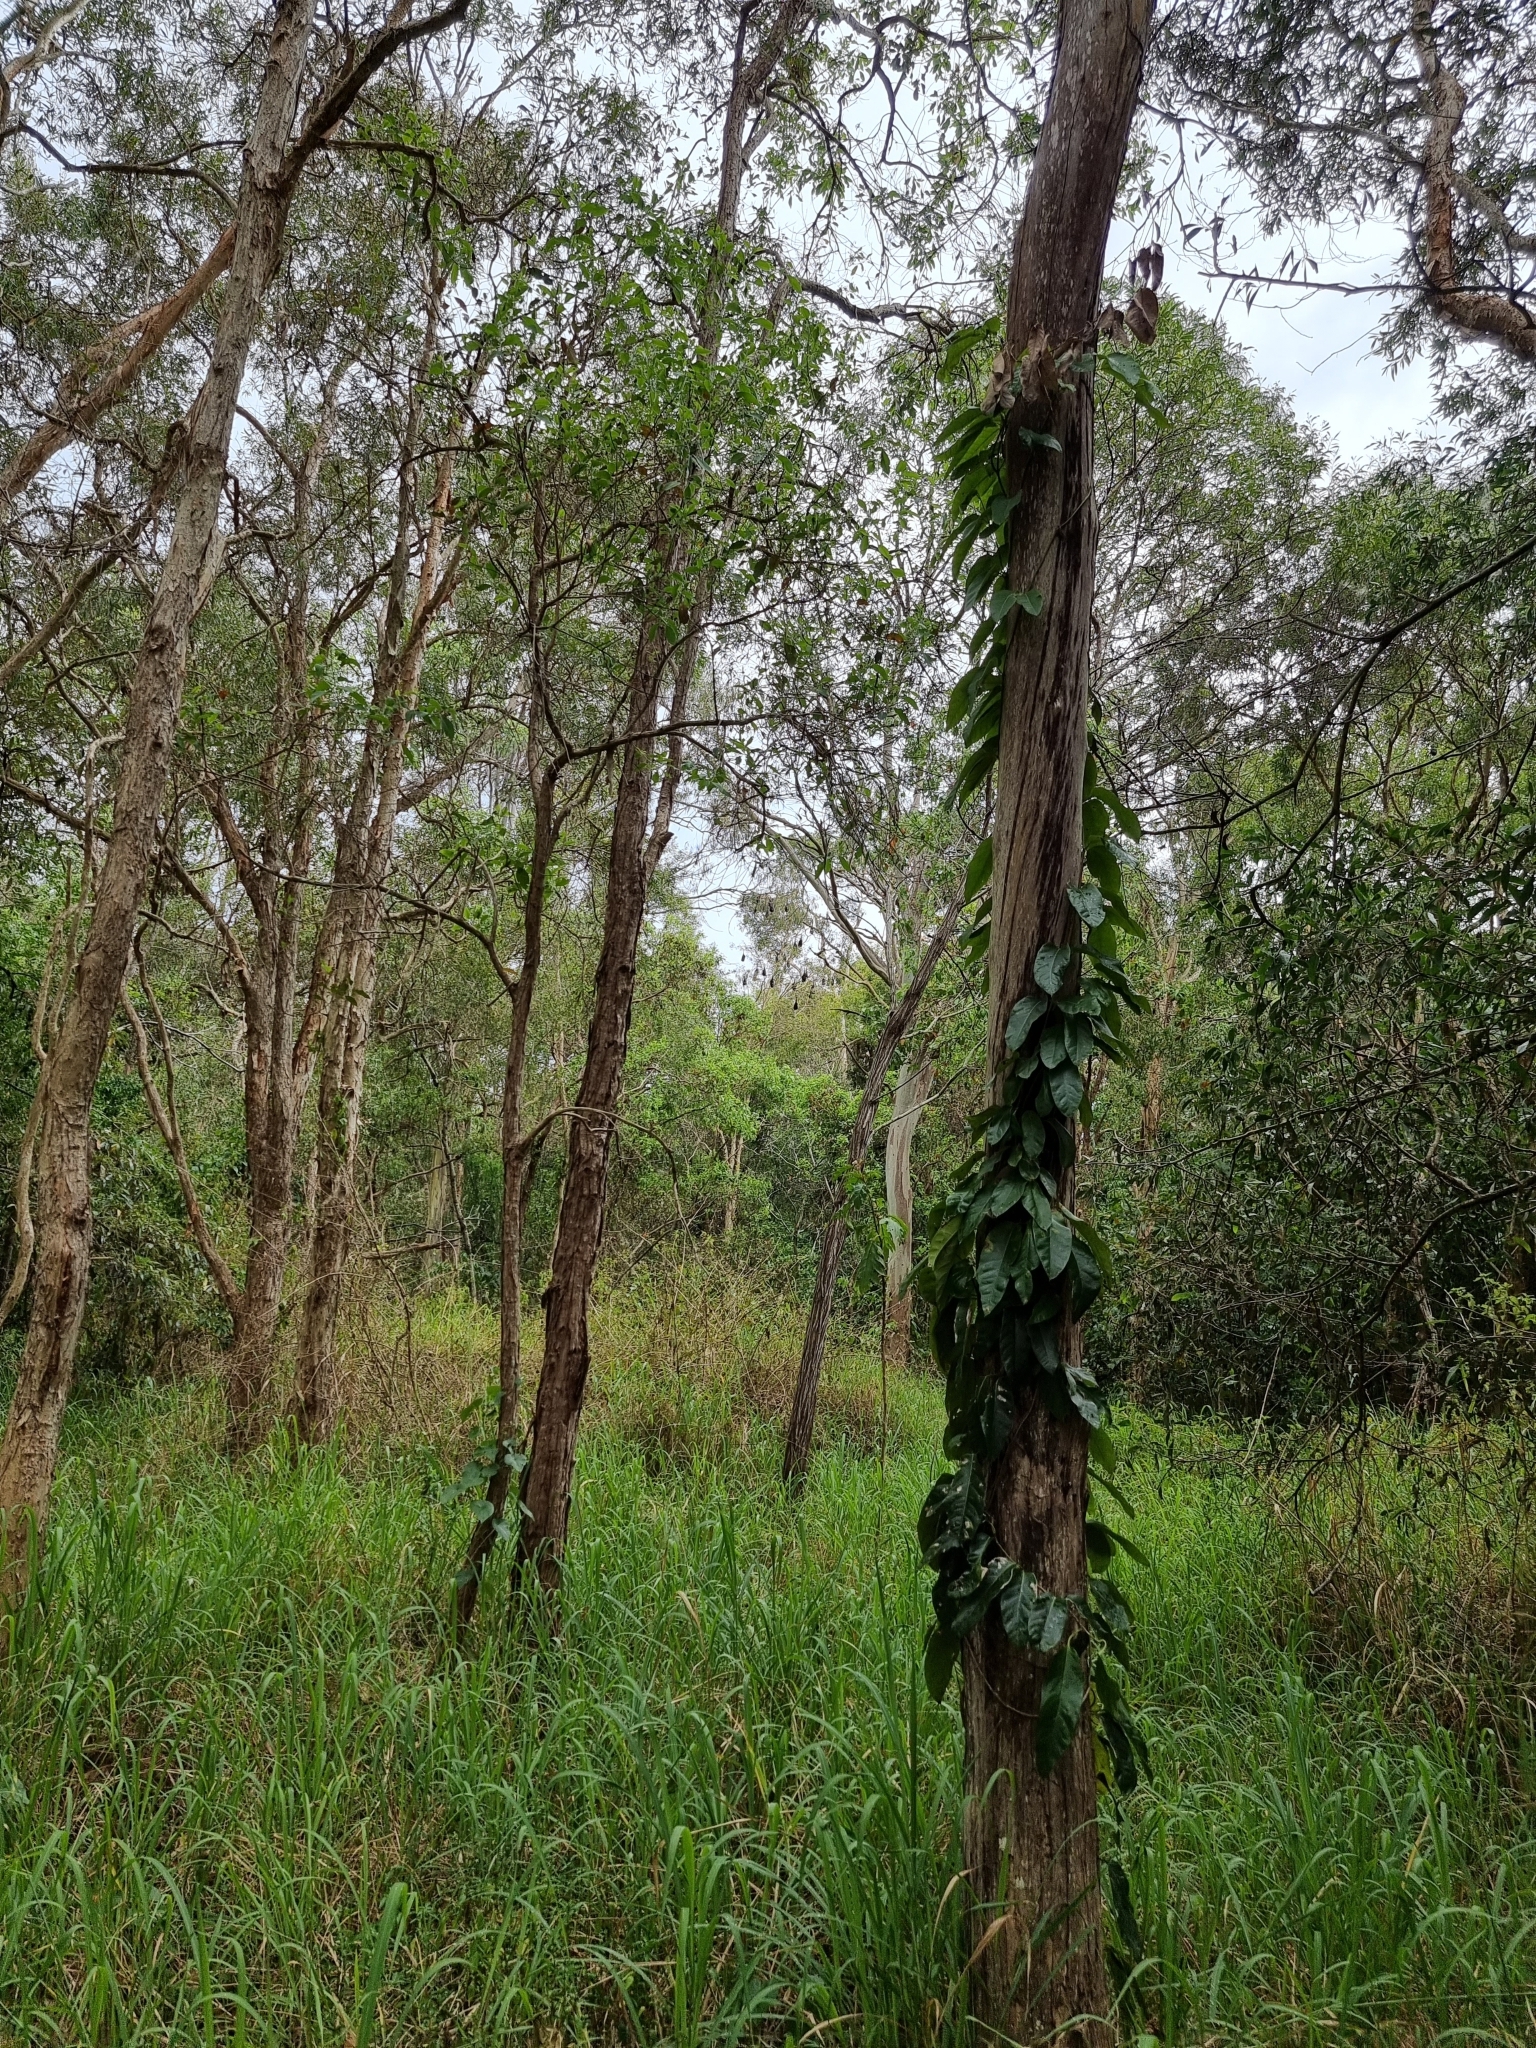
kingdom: Animalia
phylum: Chordata
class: Mammalia
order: Chiroptera
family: Pteropodidae
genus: Pteropus
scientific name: Pteropus alecto
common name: Black flying fox
